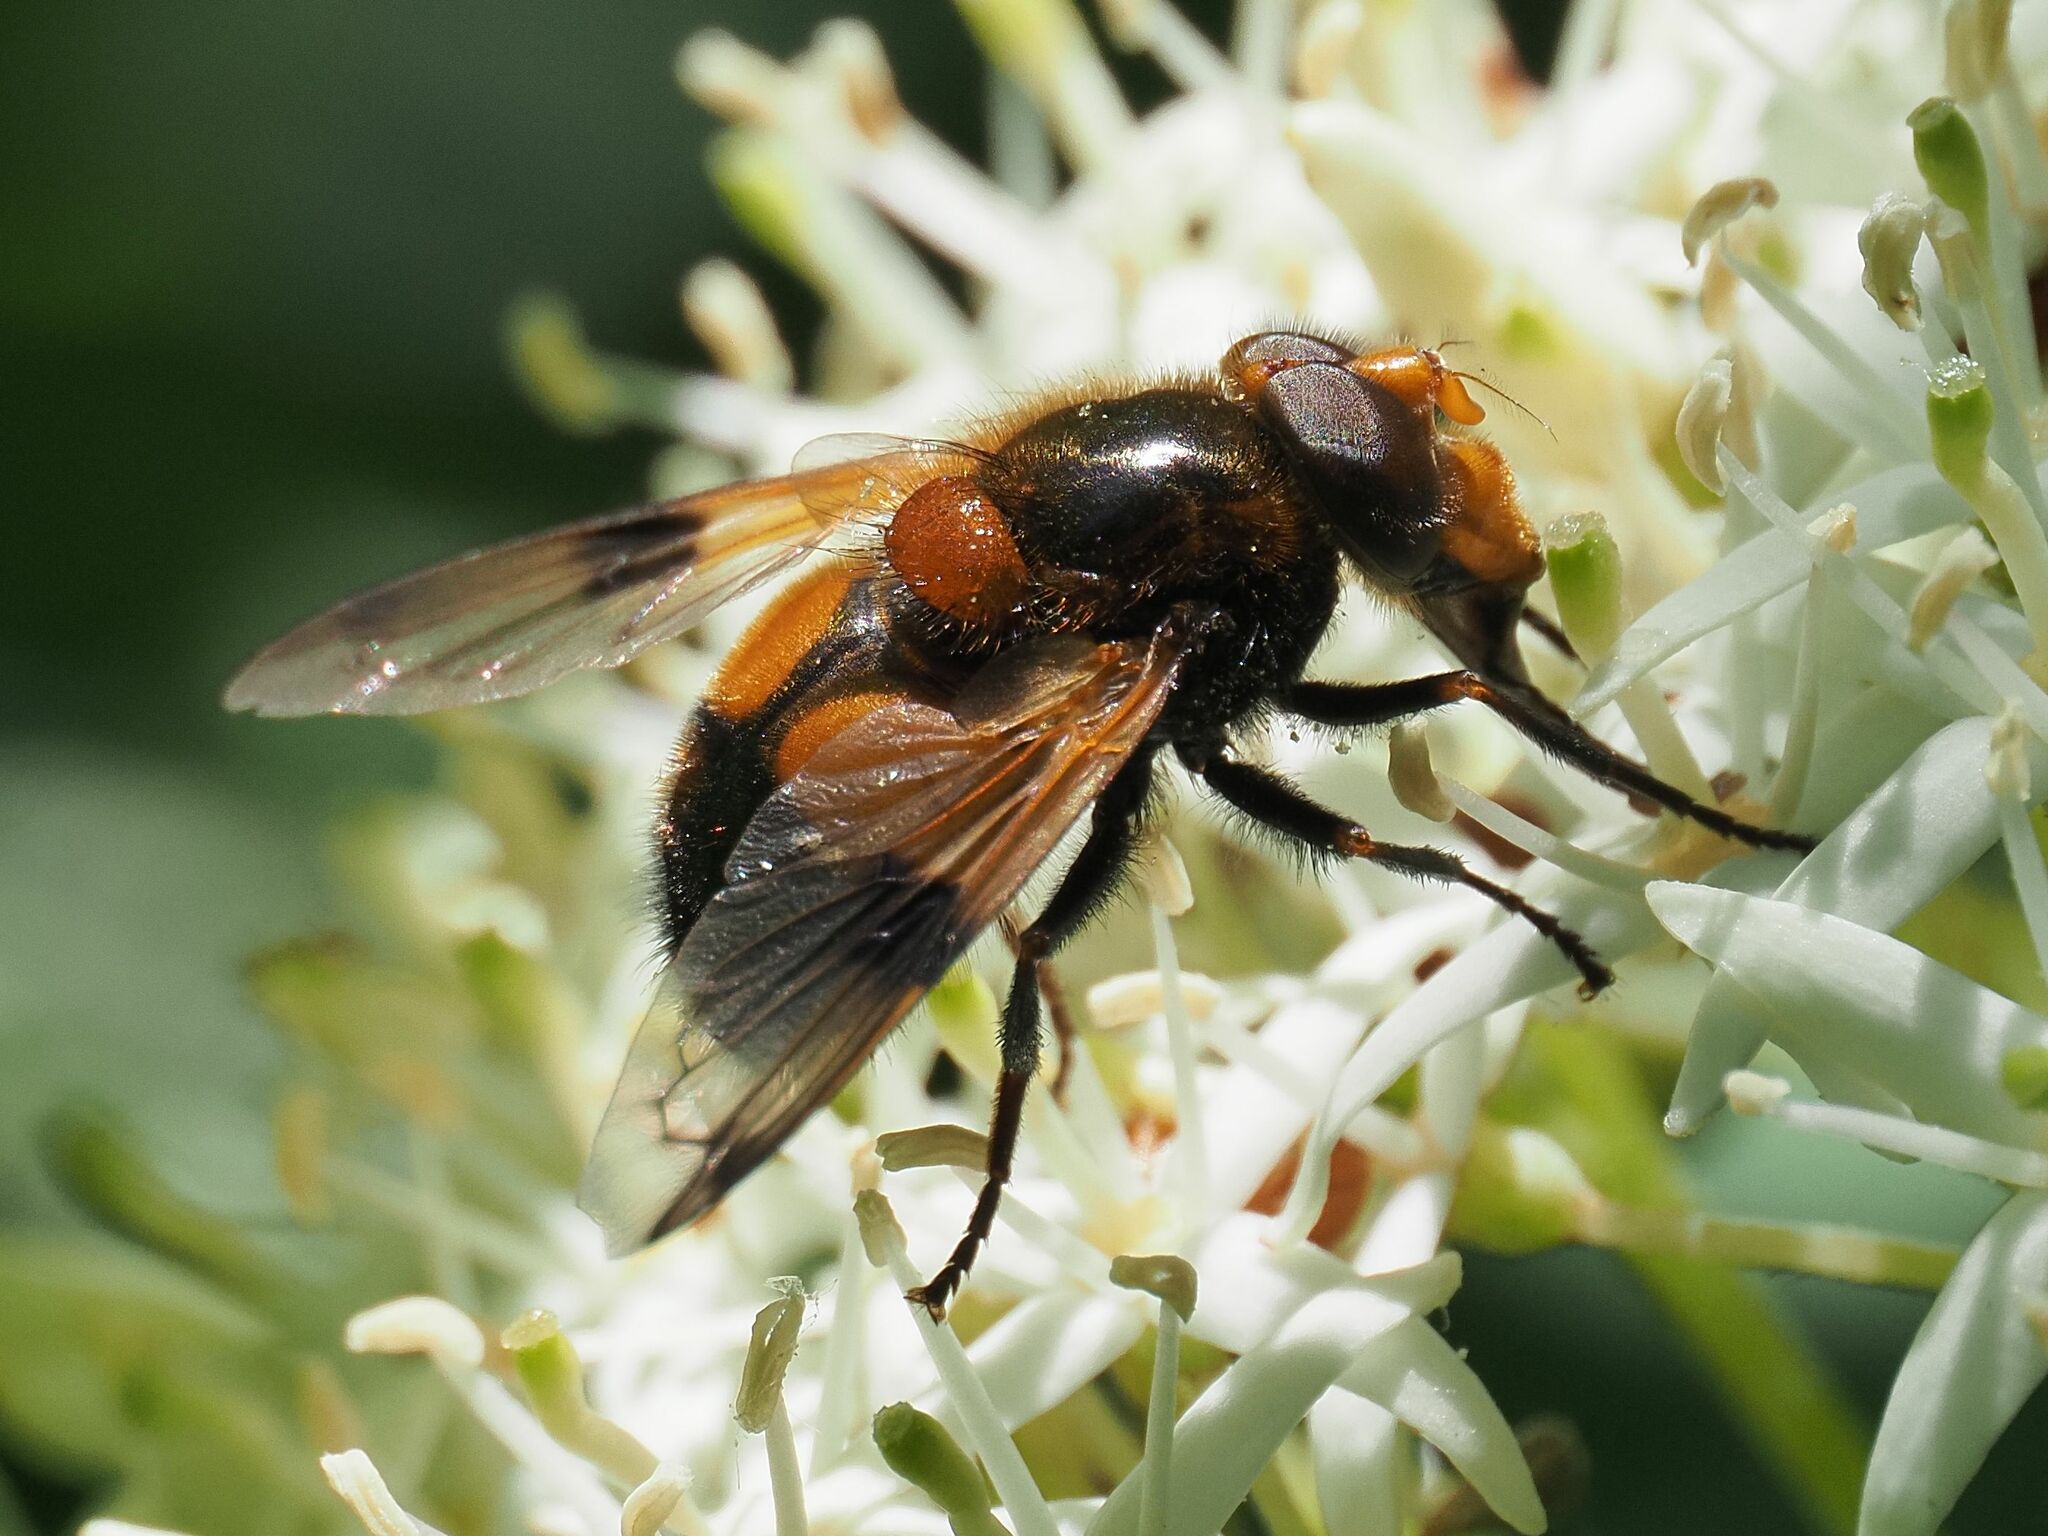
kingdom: Animalia
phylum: Arthropoda
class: Insecta
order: Diptera
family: Syrphidae
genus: Volucella
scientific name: Volucella inflata
